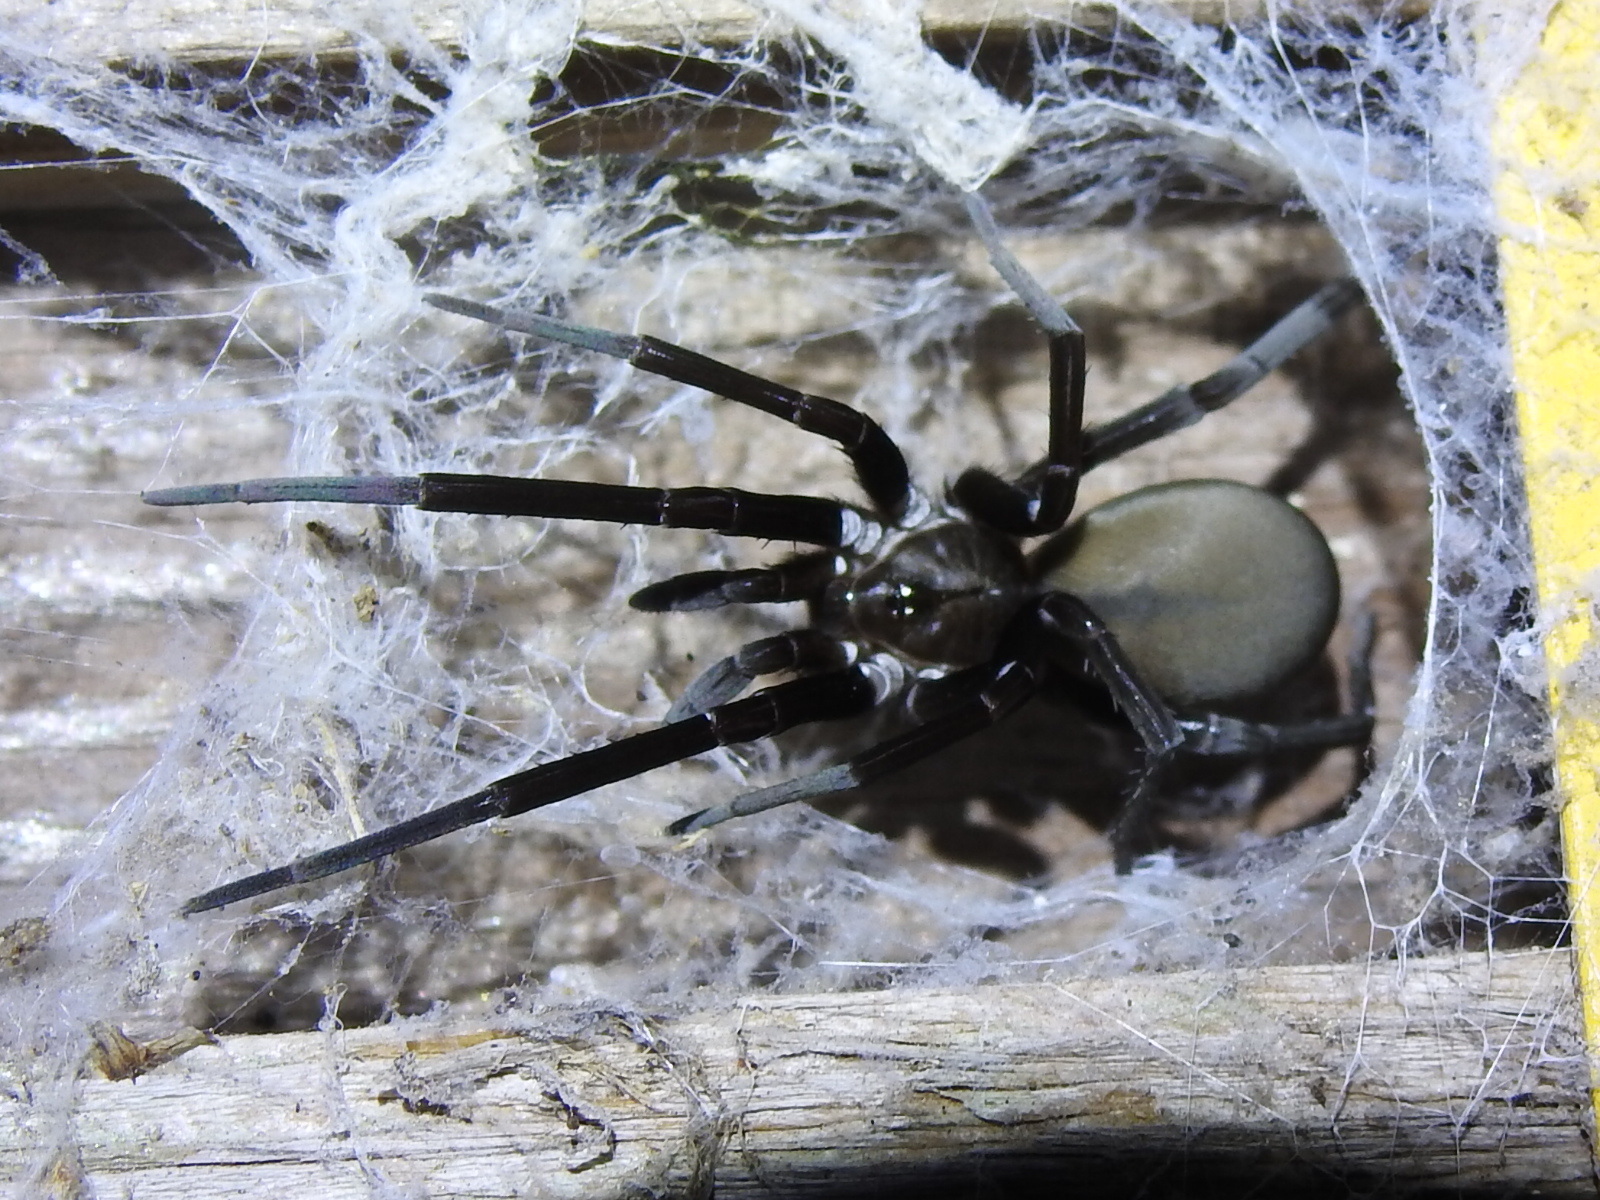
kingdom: Animalia
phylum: Arthropoda
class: Arachnida
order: Araneae
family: Filistatidae
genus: Kukulcania
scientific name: Kukulcania hibernalis
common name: Crevice weaver
